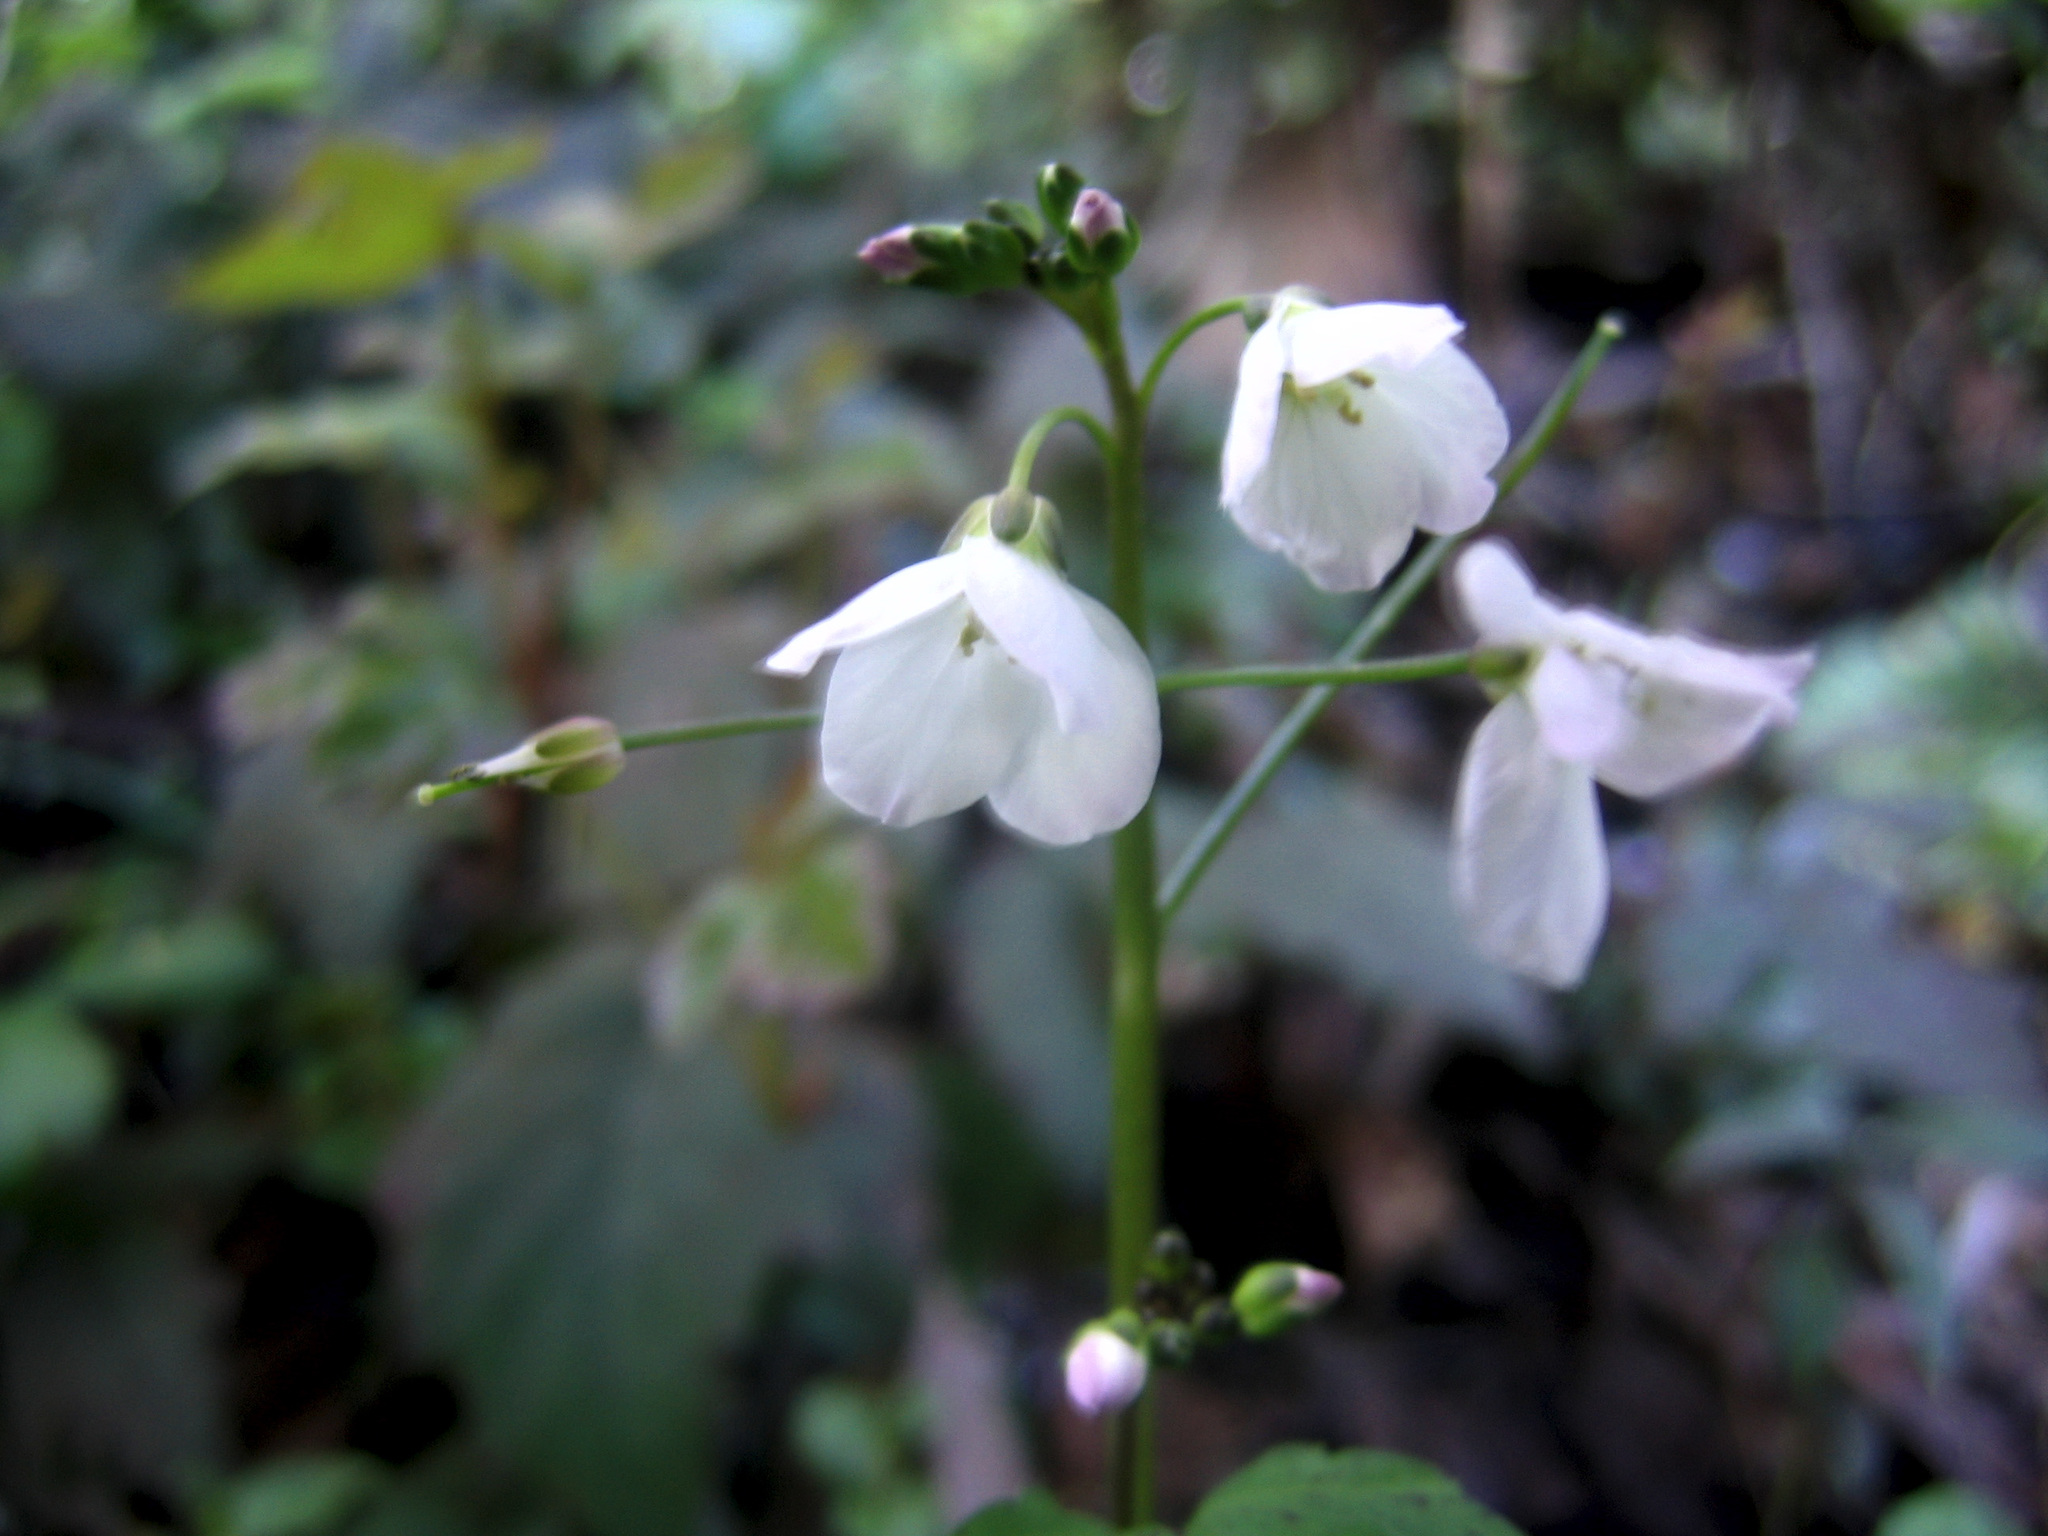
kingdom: Plantae
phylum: Tracheophyta
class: Magnoliopsida
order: Brassicales
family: Brassicaceae
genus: Cardamine
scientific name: Cardamine californica
